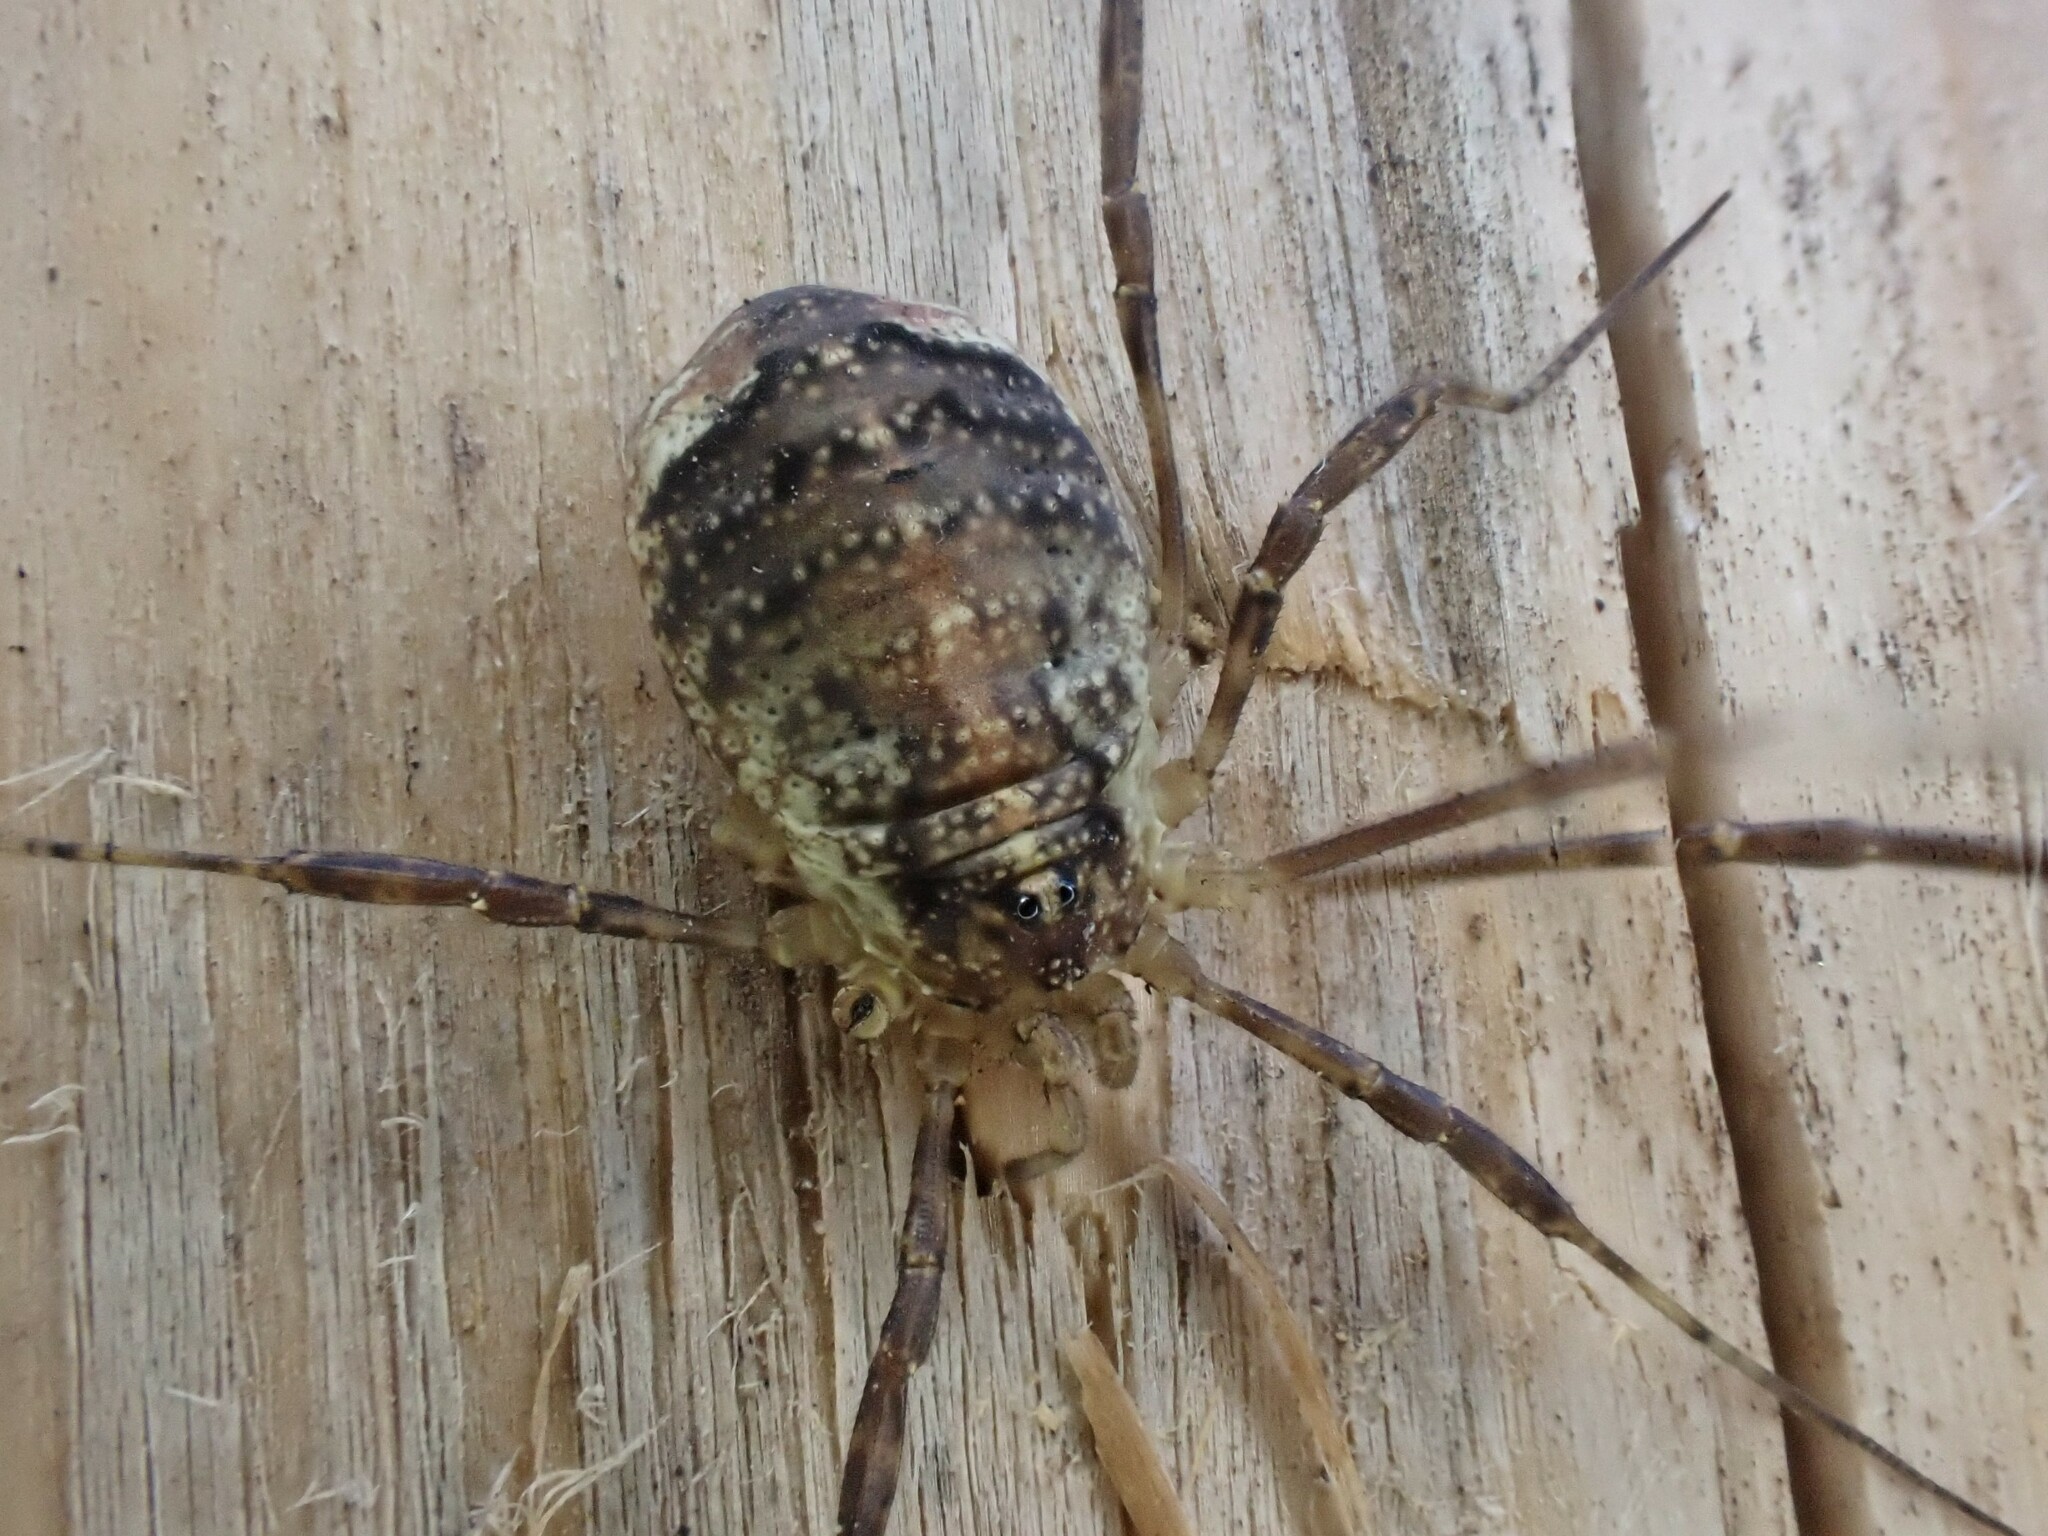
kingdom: Animalia
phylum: Arthropoda
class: Arachnida
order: Opiliones
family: Phalangiidae
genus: Paroligolophus
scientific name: Paroligolophus agrestis
